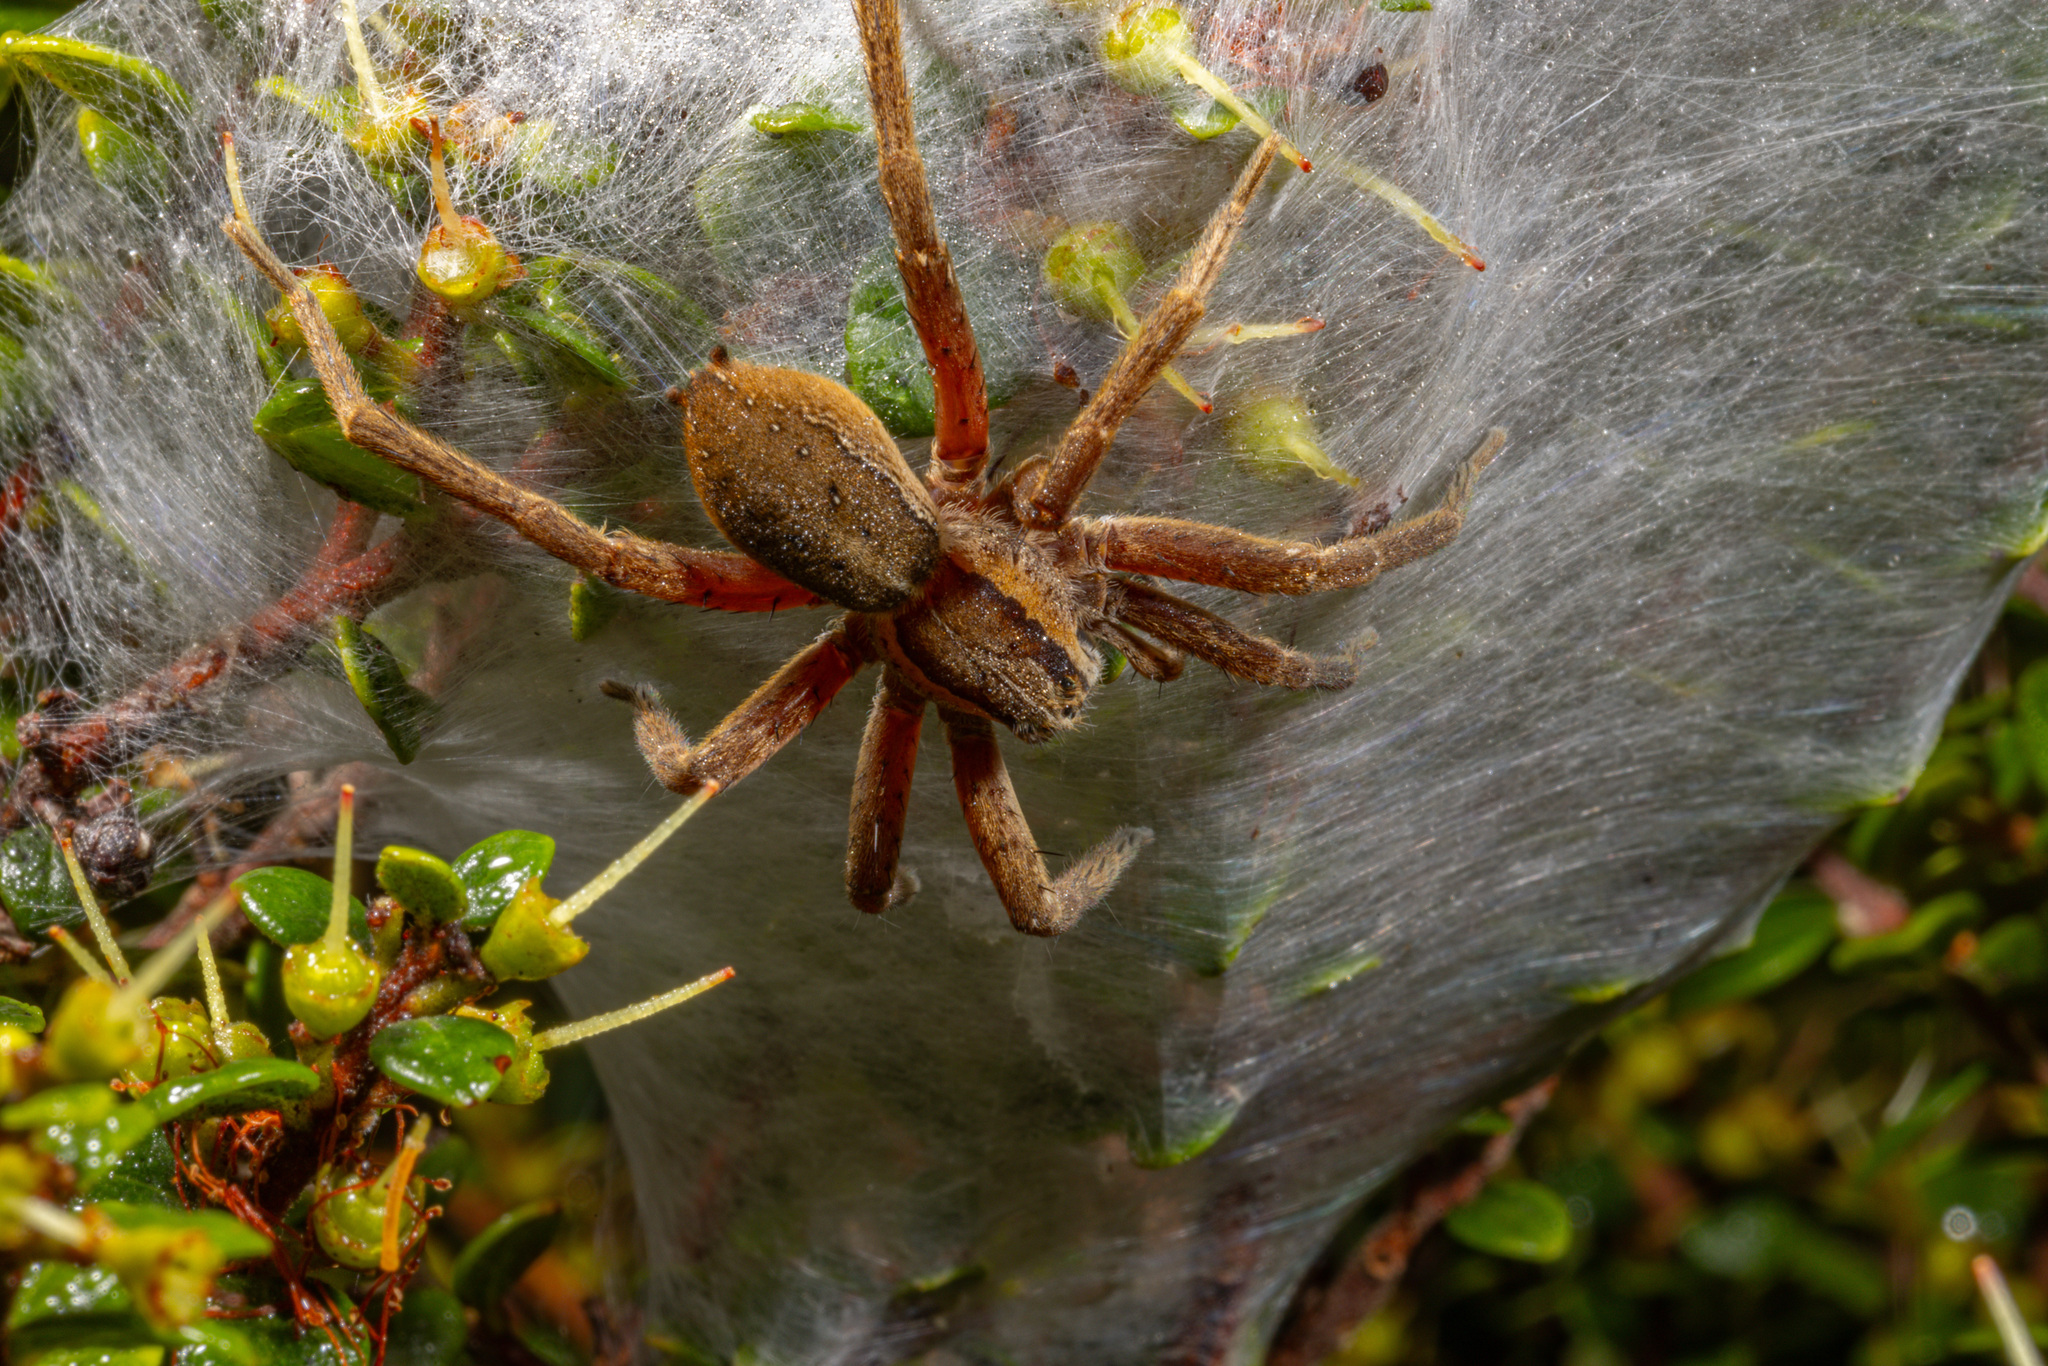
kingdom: Animalia
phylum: Arthropoda
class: Arachnida
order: Araneae
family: Pisauridae
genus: Dolomedes
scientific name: Dolomedes minor
